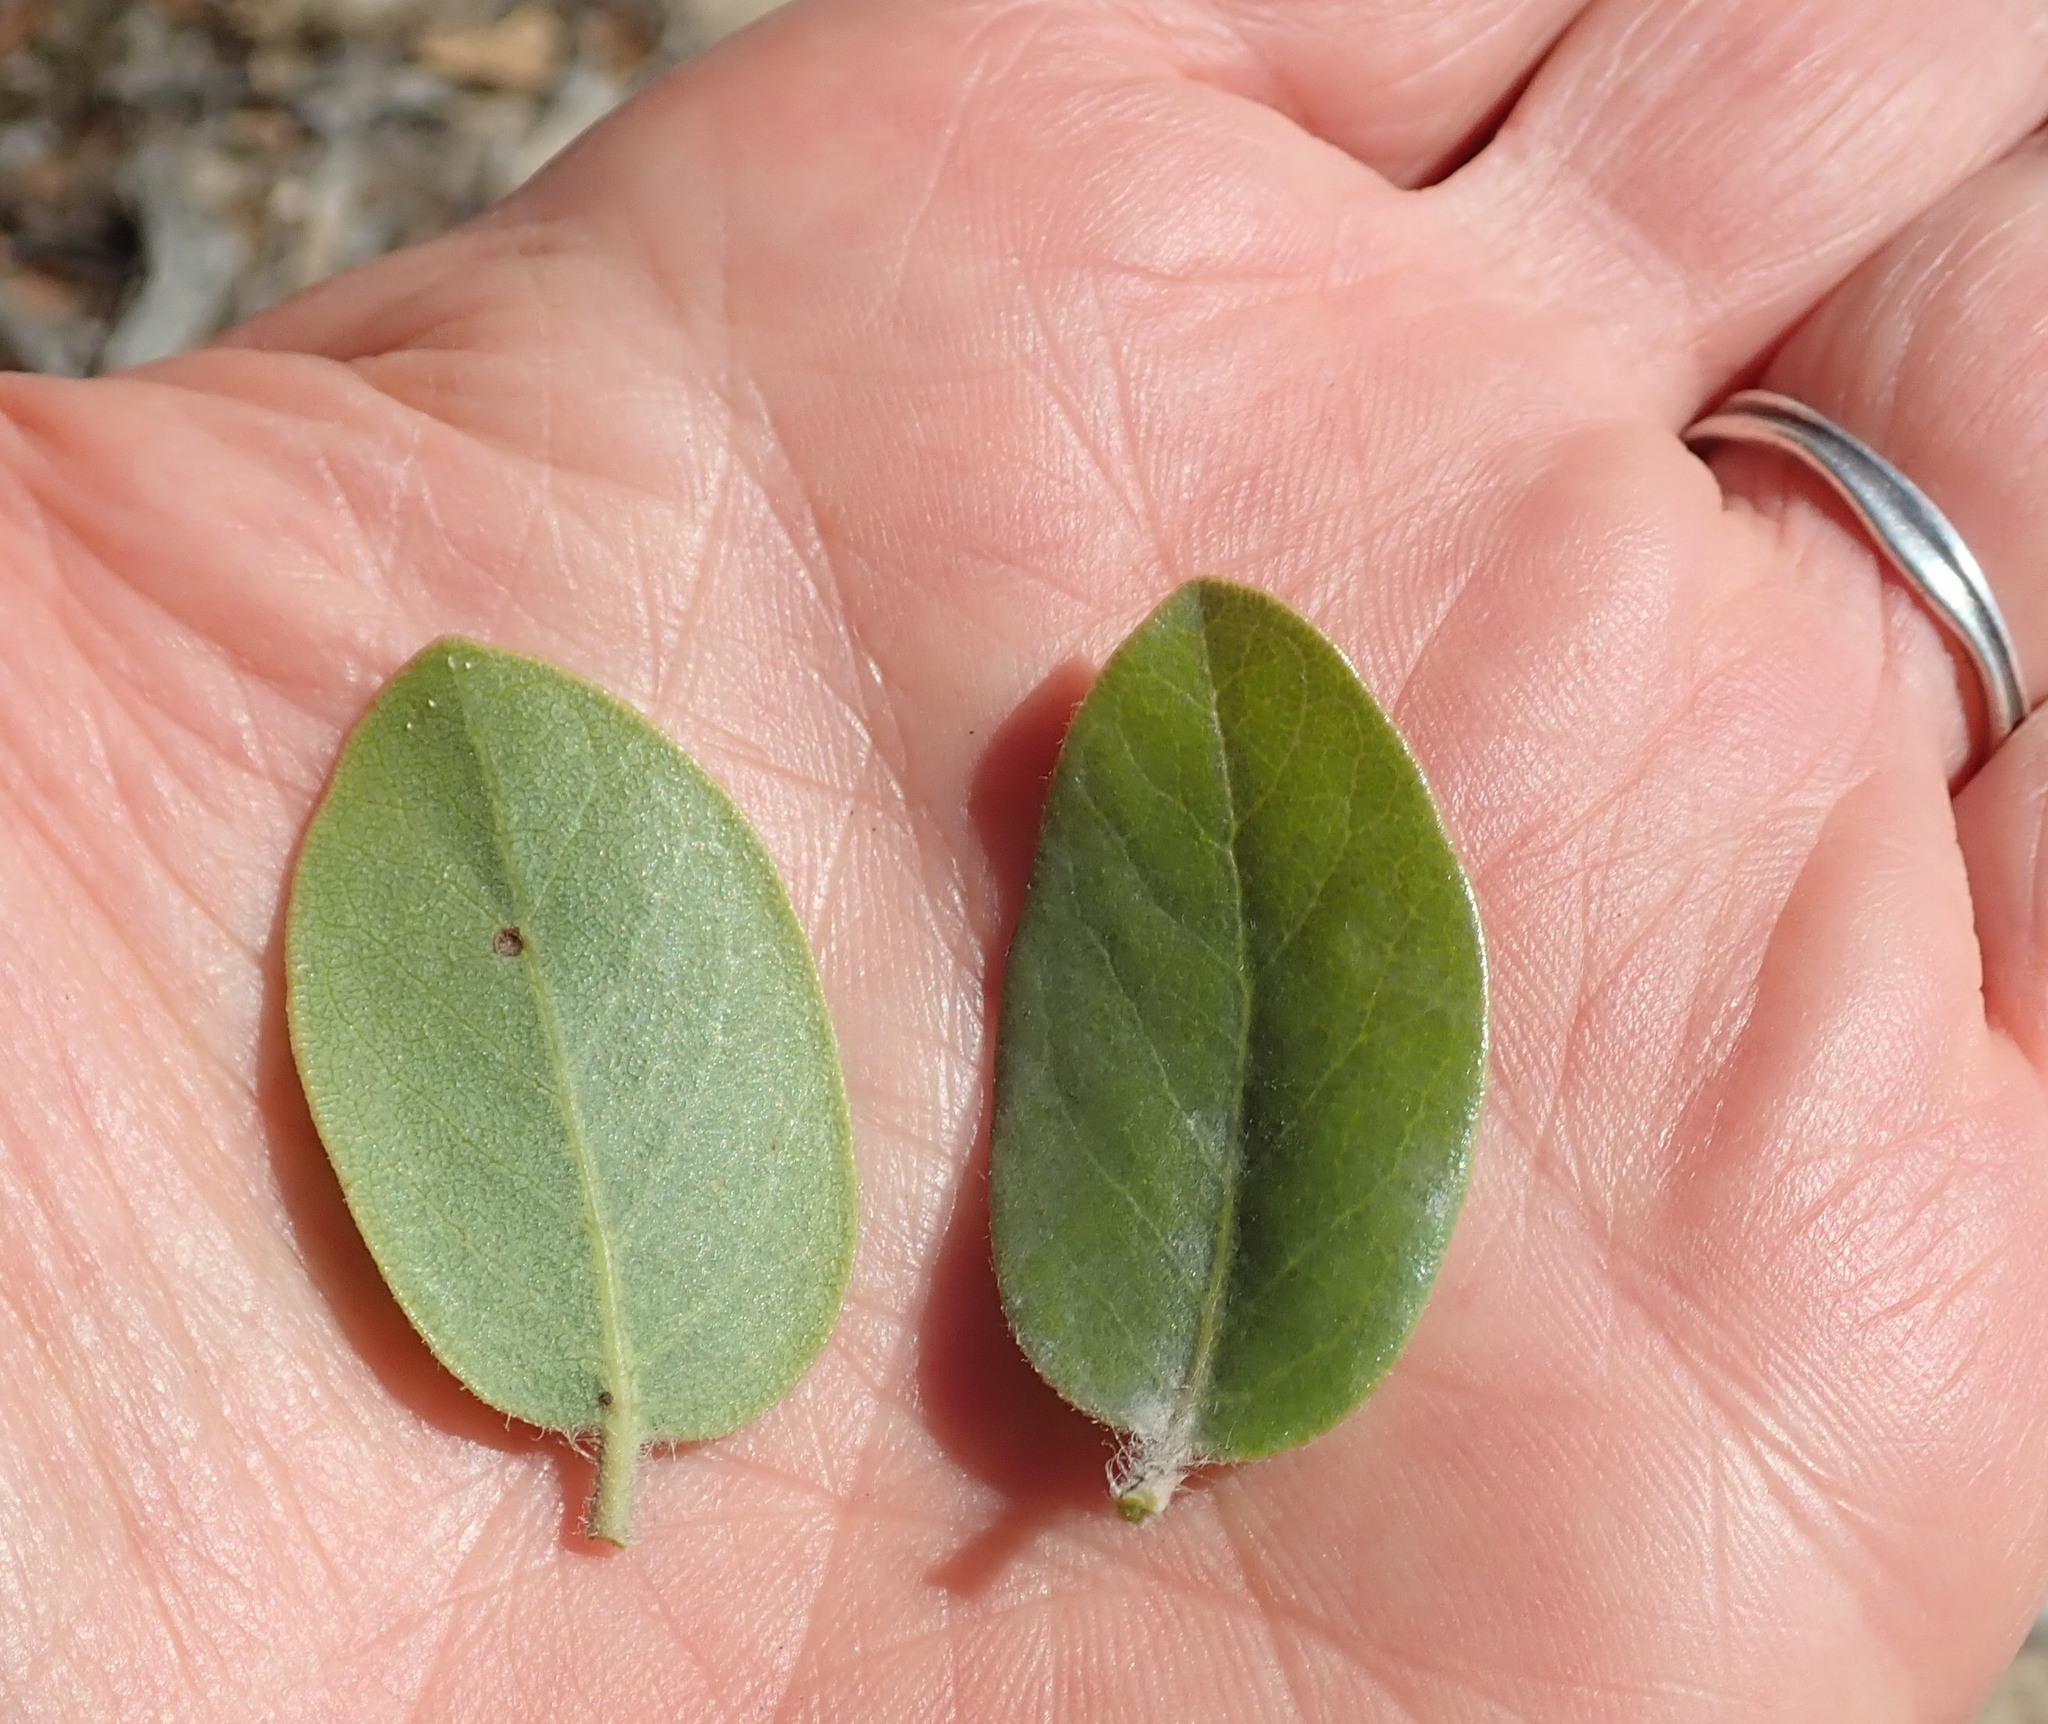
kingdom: Plantae
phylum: Tracheophyta
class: Magnoliopsida
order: Ericales
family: Ericaceae
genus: Arctostaphylos
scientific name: Arctostaphylos crustacea
